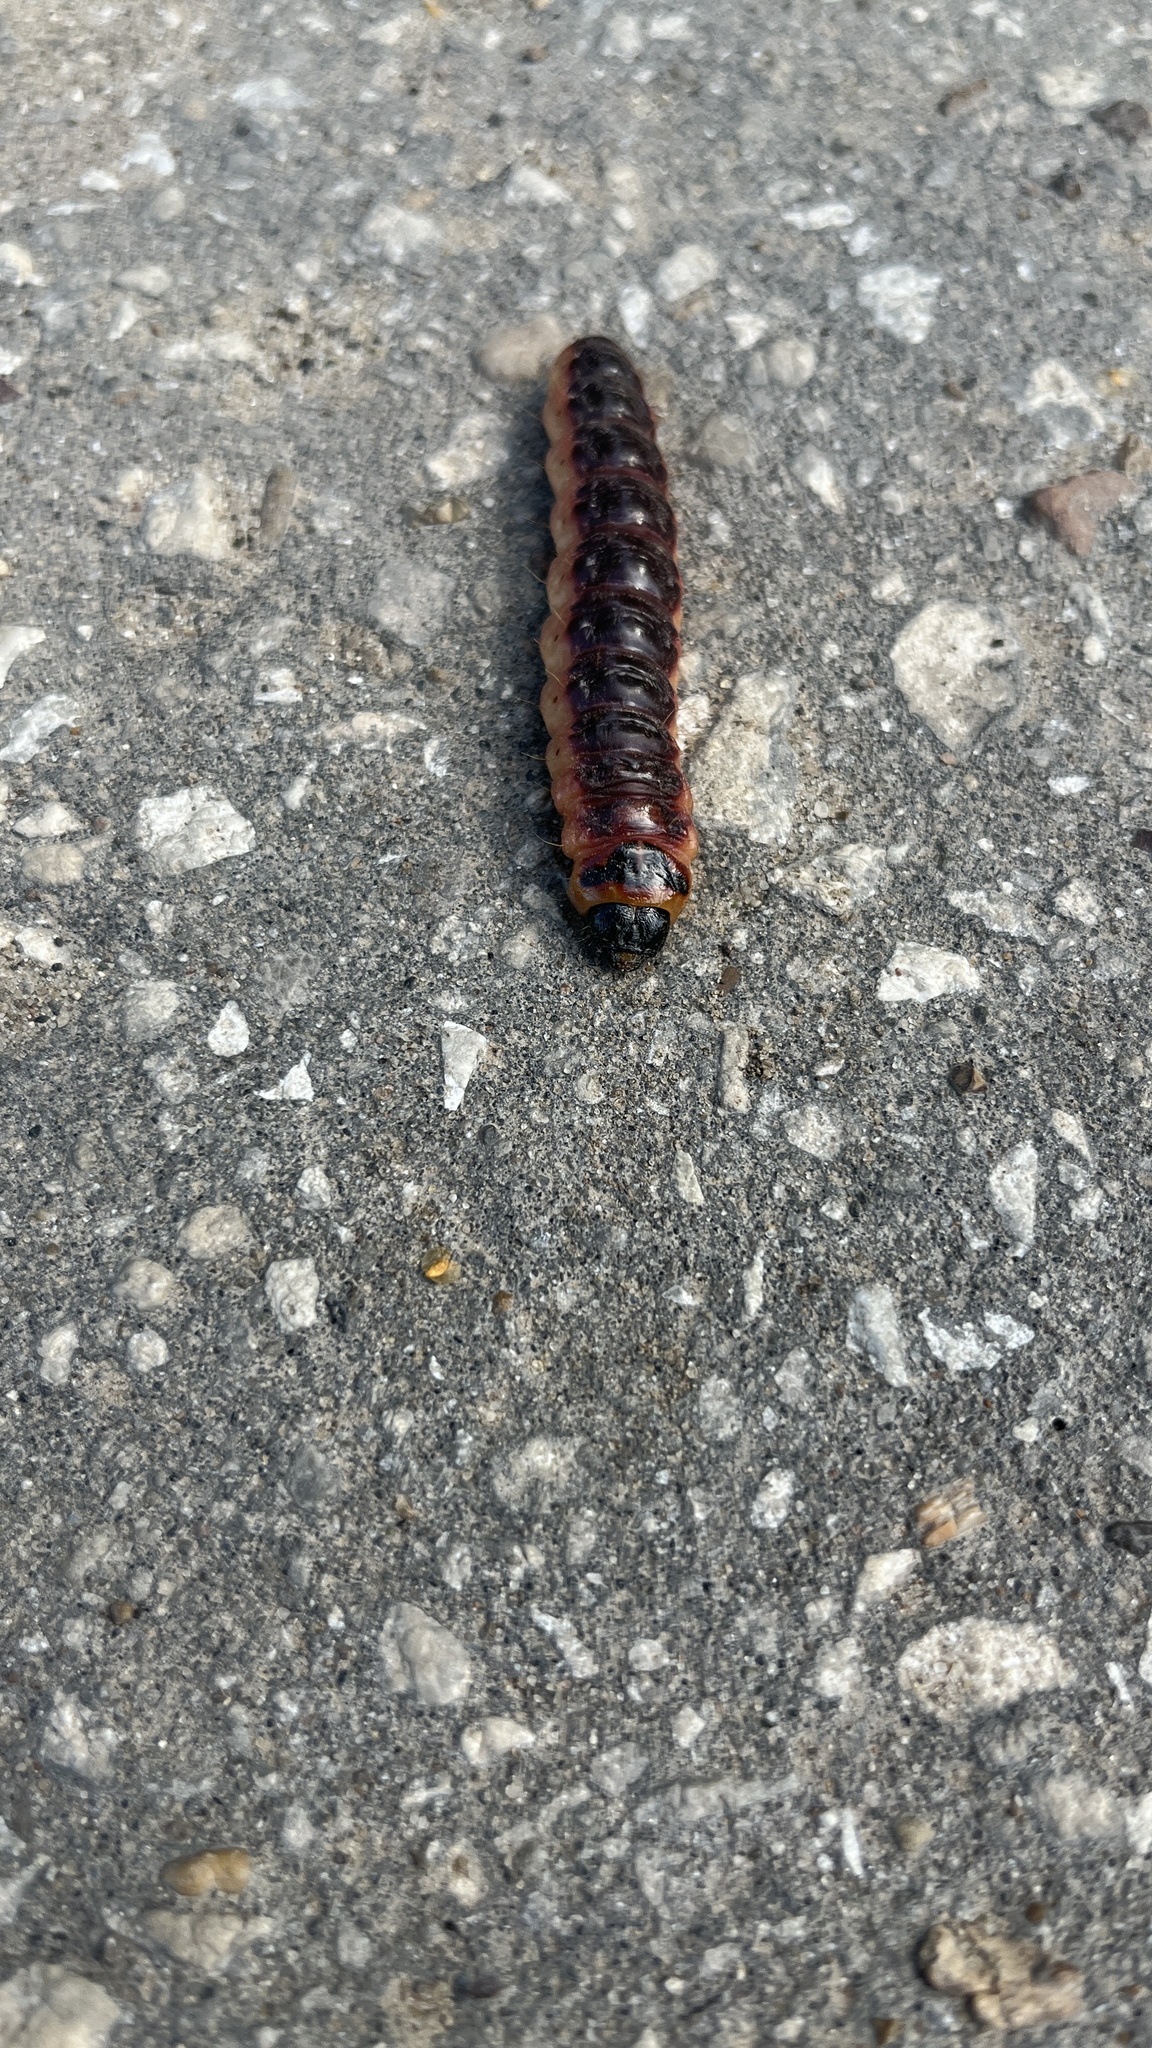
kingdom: Animalia
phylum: Arthropoda
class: Insecta
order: Lepidoptera
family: Cossidae
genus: Cossus
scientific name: Cossus cossus
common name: Goat moth
